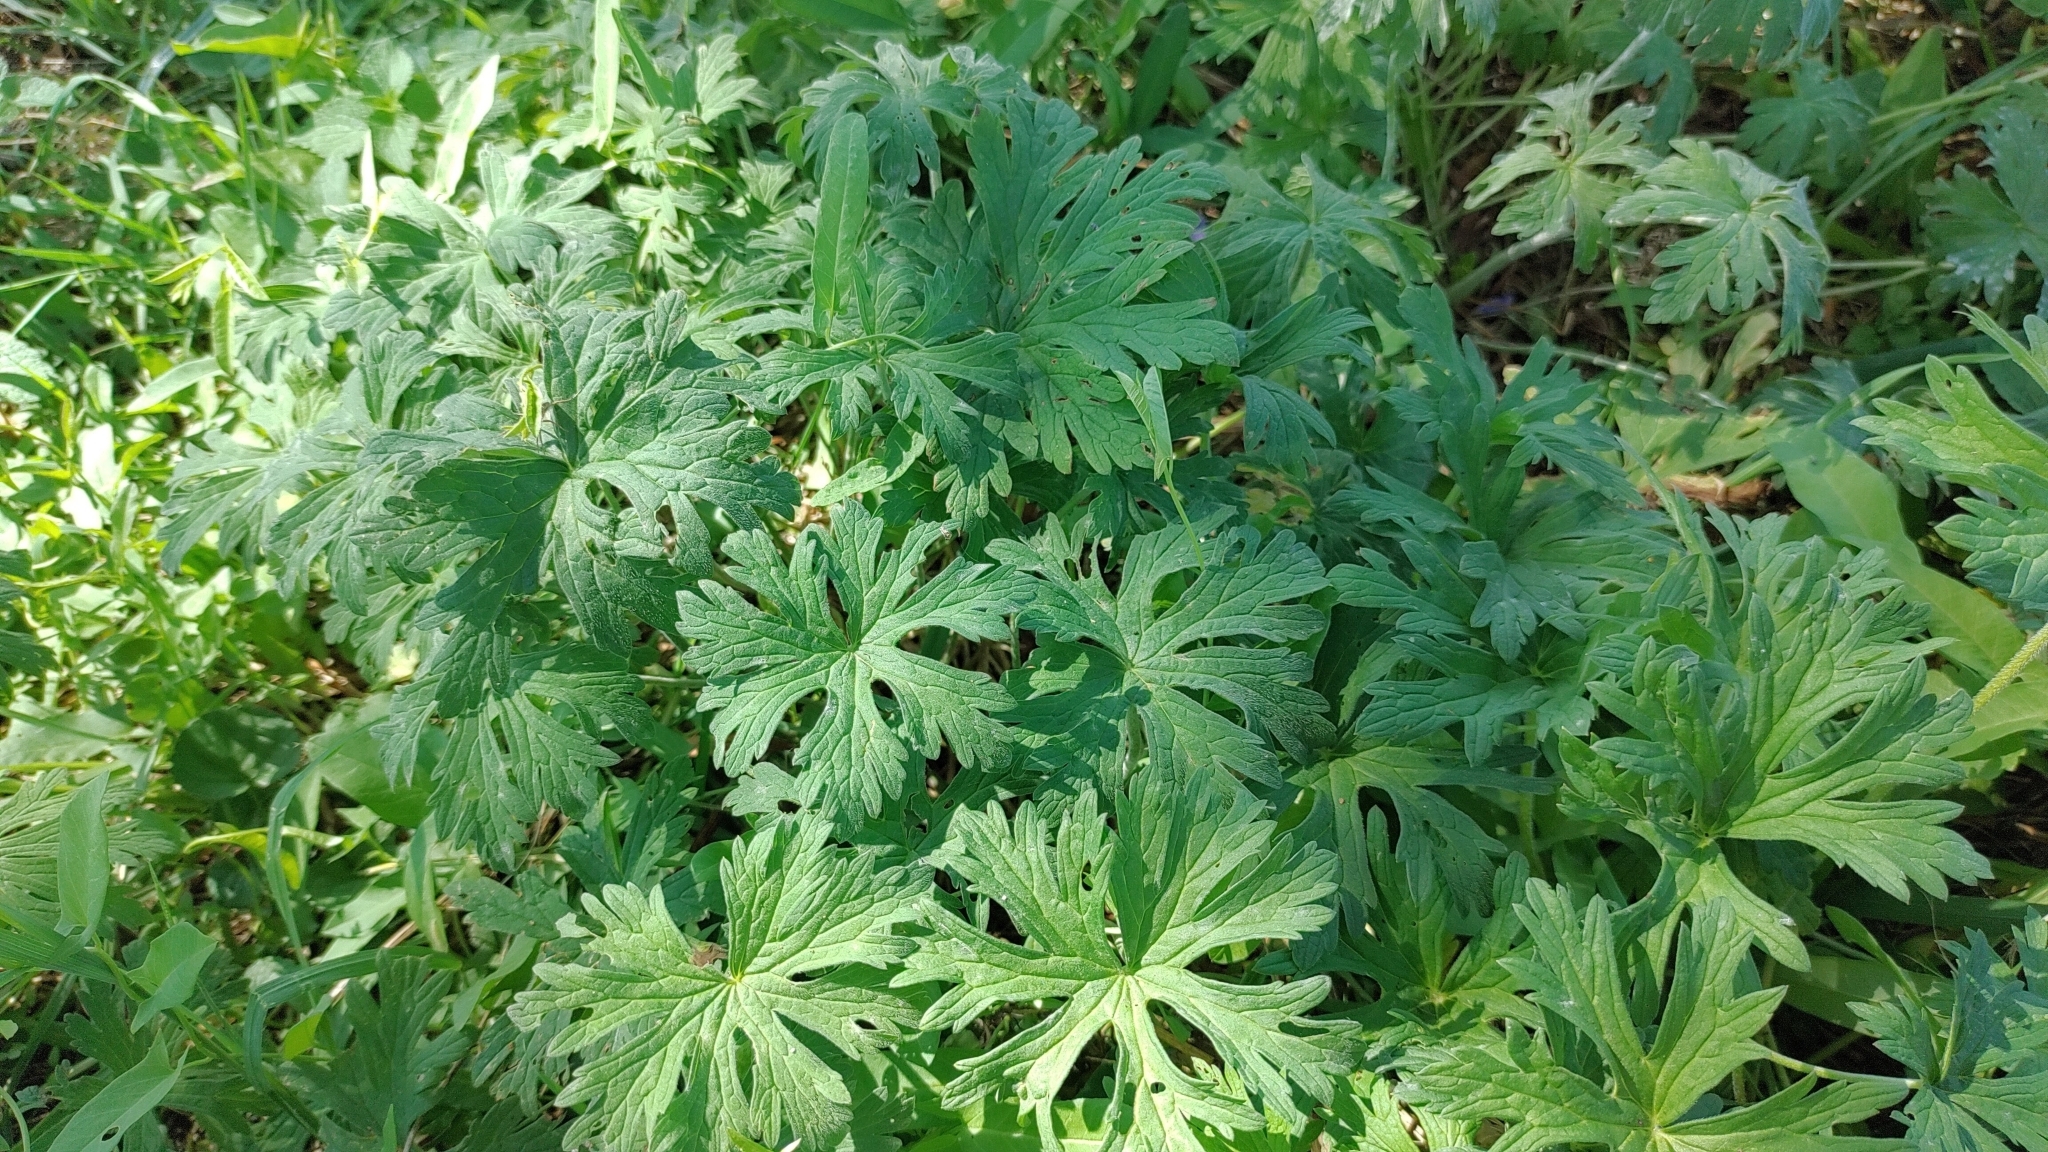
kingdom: Plantae
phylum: Tracheophyta
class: Magnoliopsida
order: Geraniales
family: Geraniaceae
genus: Geranium
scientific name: Geranium pratense
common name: Meadow crane's-bill
